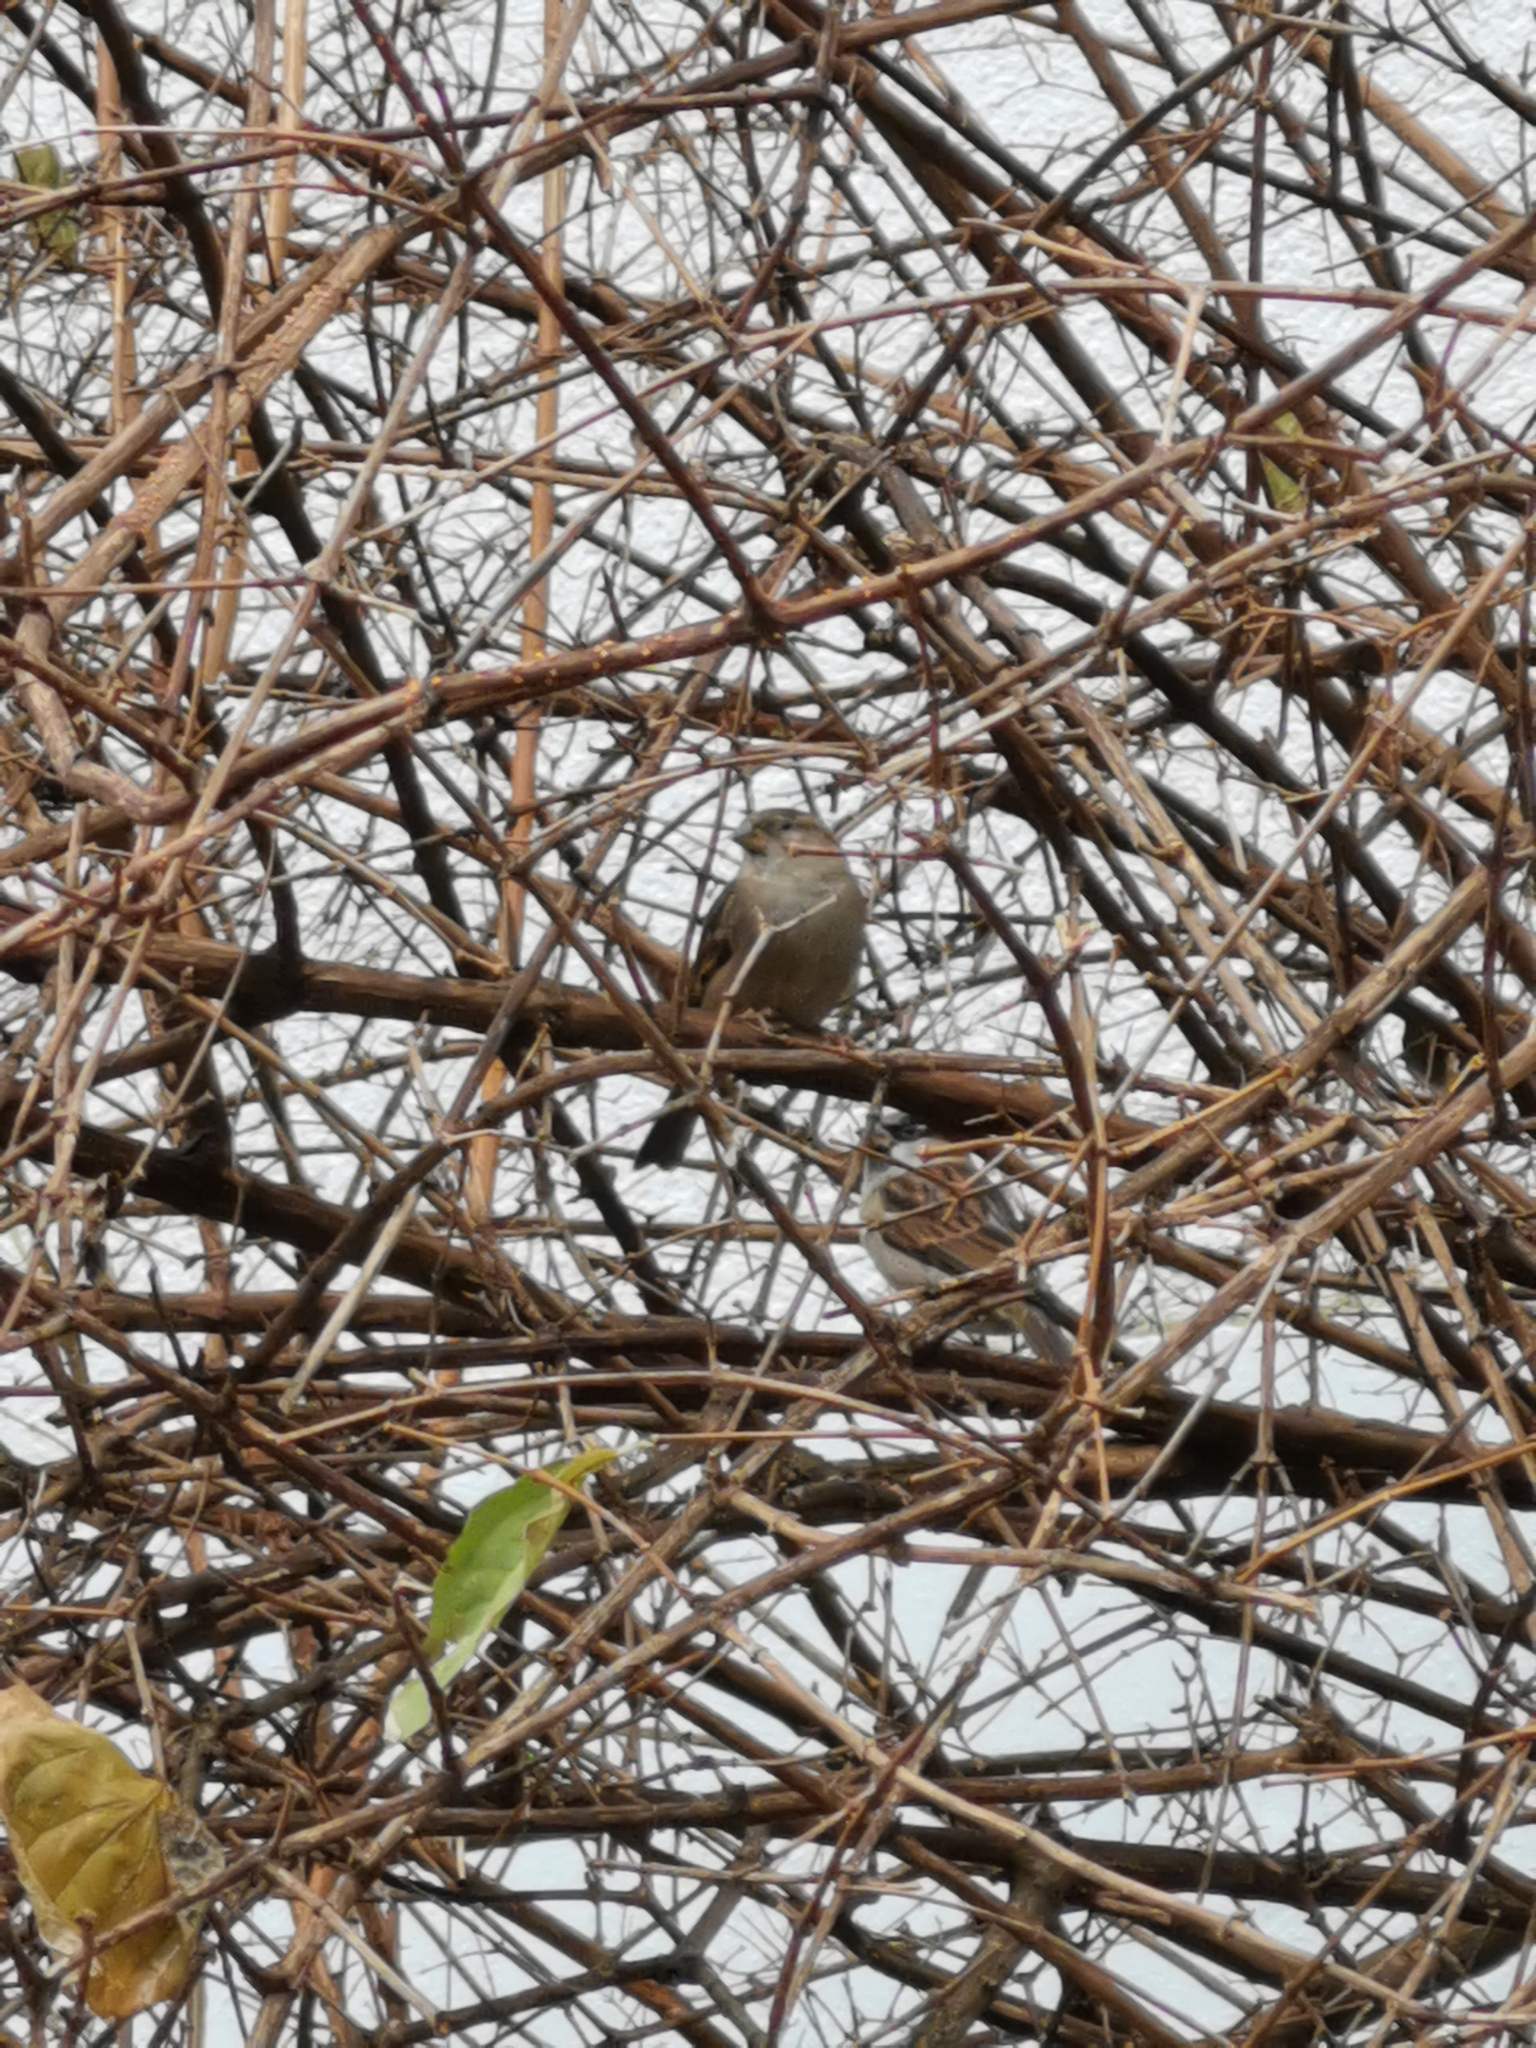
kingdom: Animalia
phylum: Chordata
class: Aves
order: Passeriformes
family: Passeridae
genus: Passer
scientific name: Passer domesticus
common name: House sparrow
